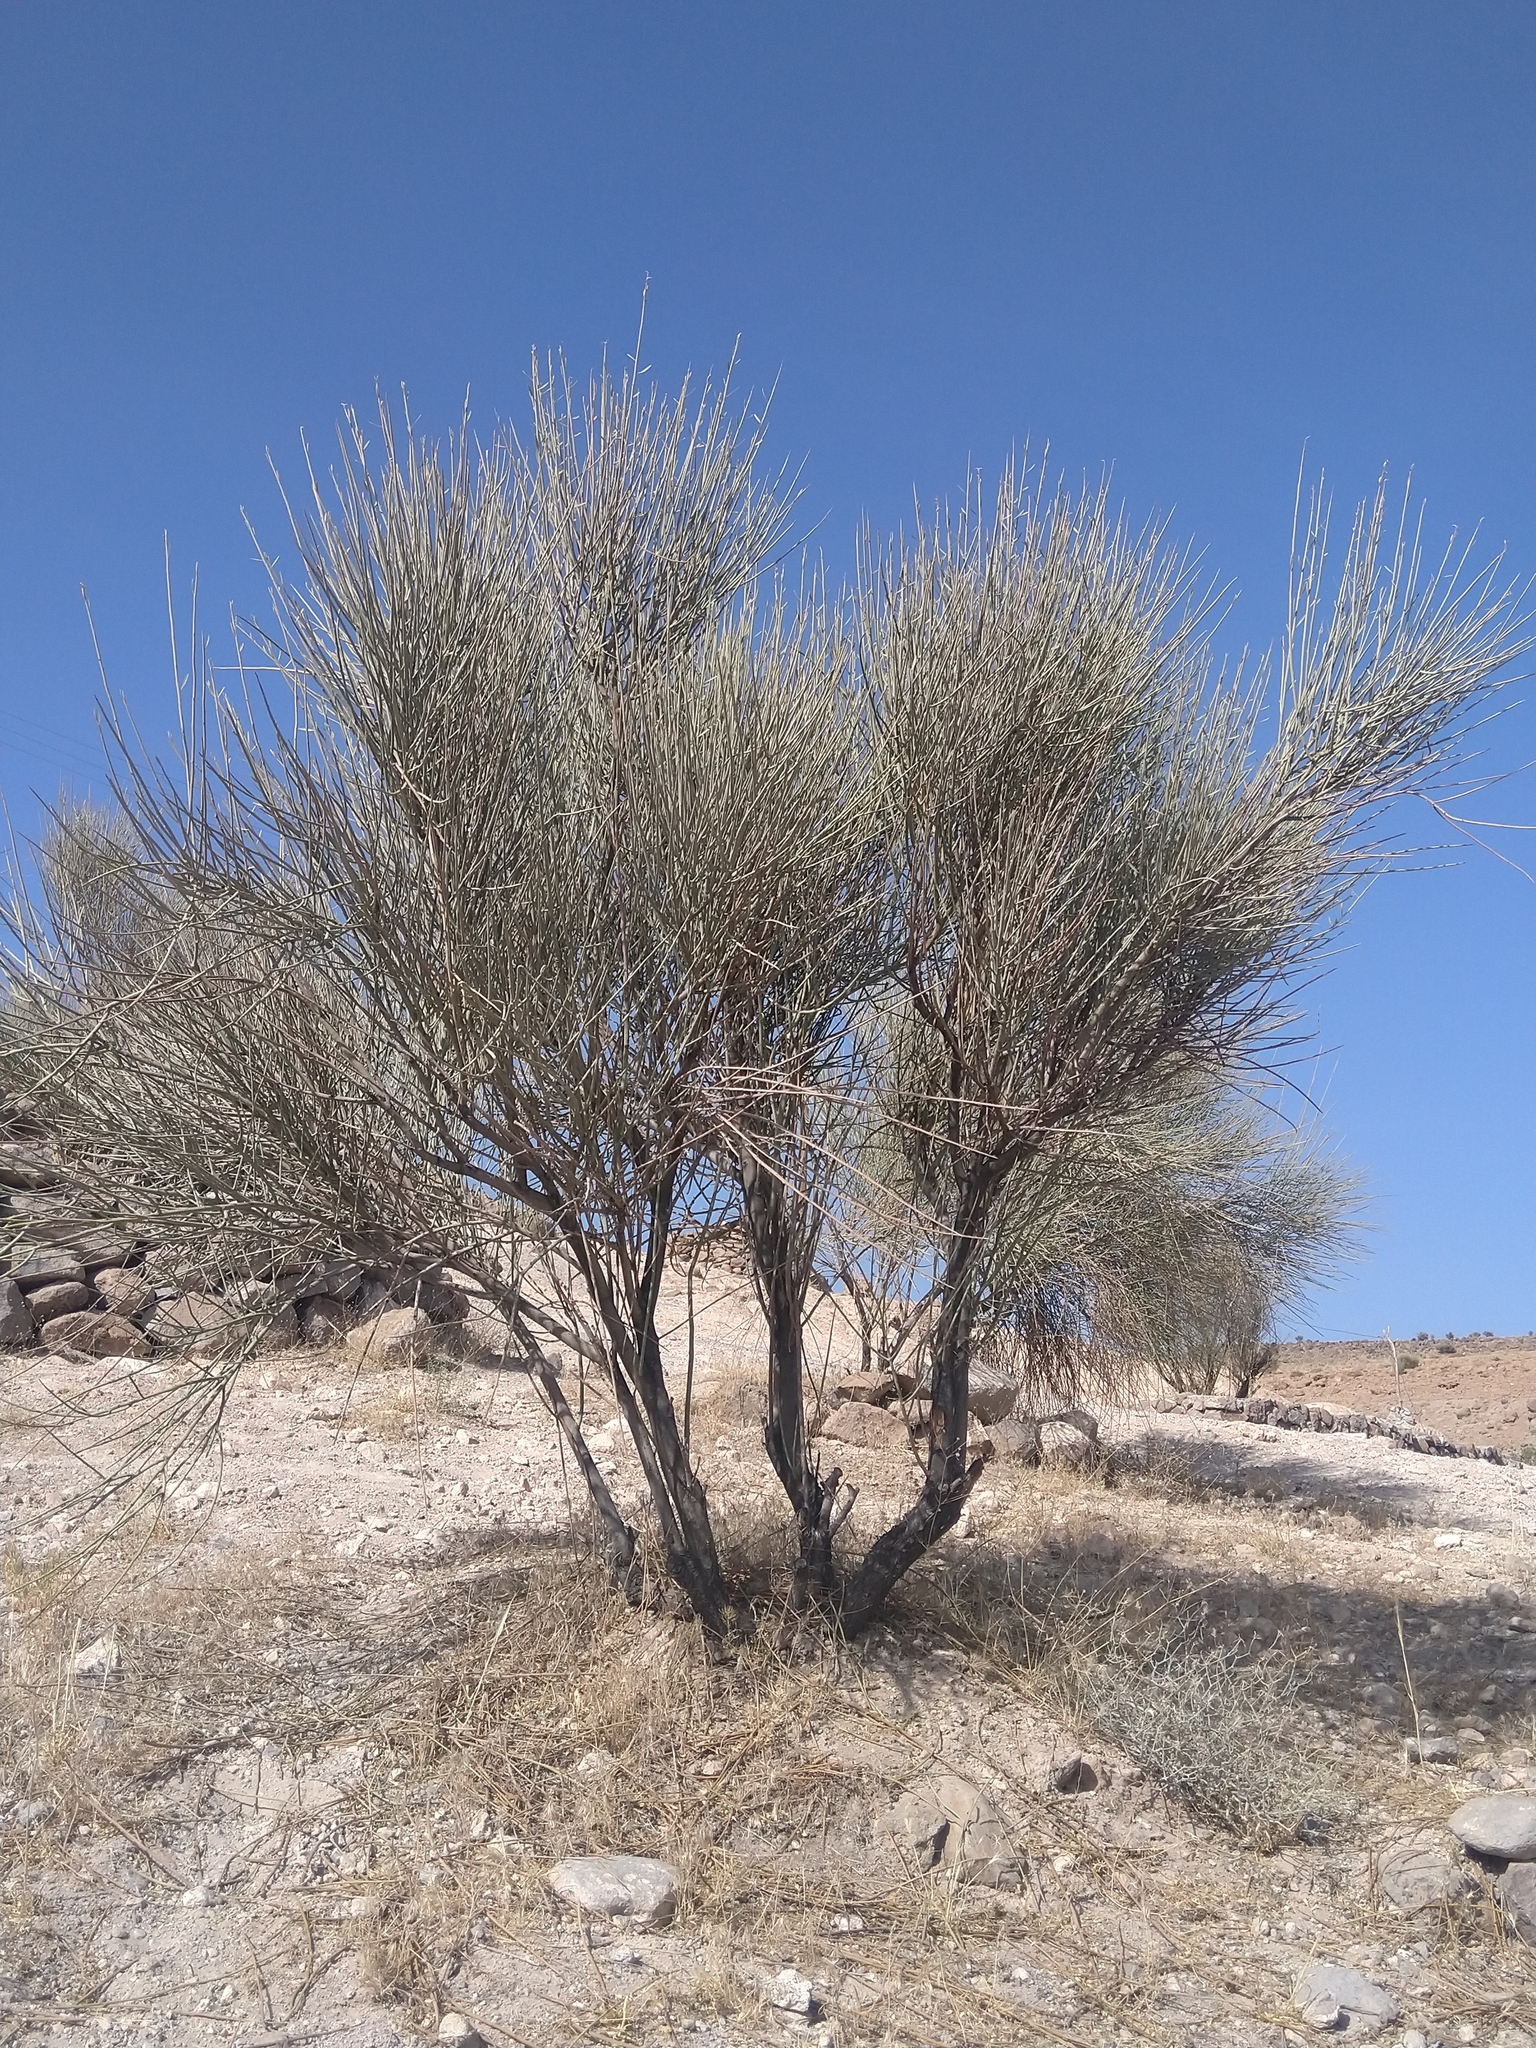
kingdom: Plantae
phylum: Tracheophyta
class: Magnoliopsida
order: Rosales
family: Rosaceae
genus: Prunus
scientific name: Prunus scoparia
